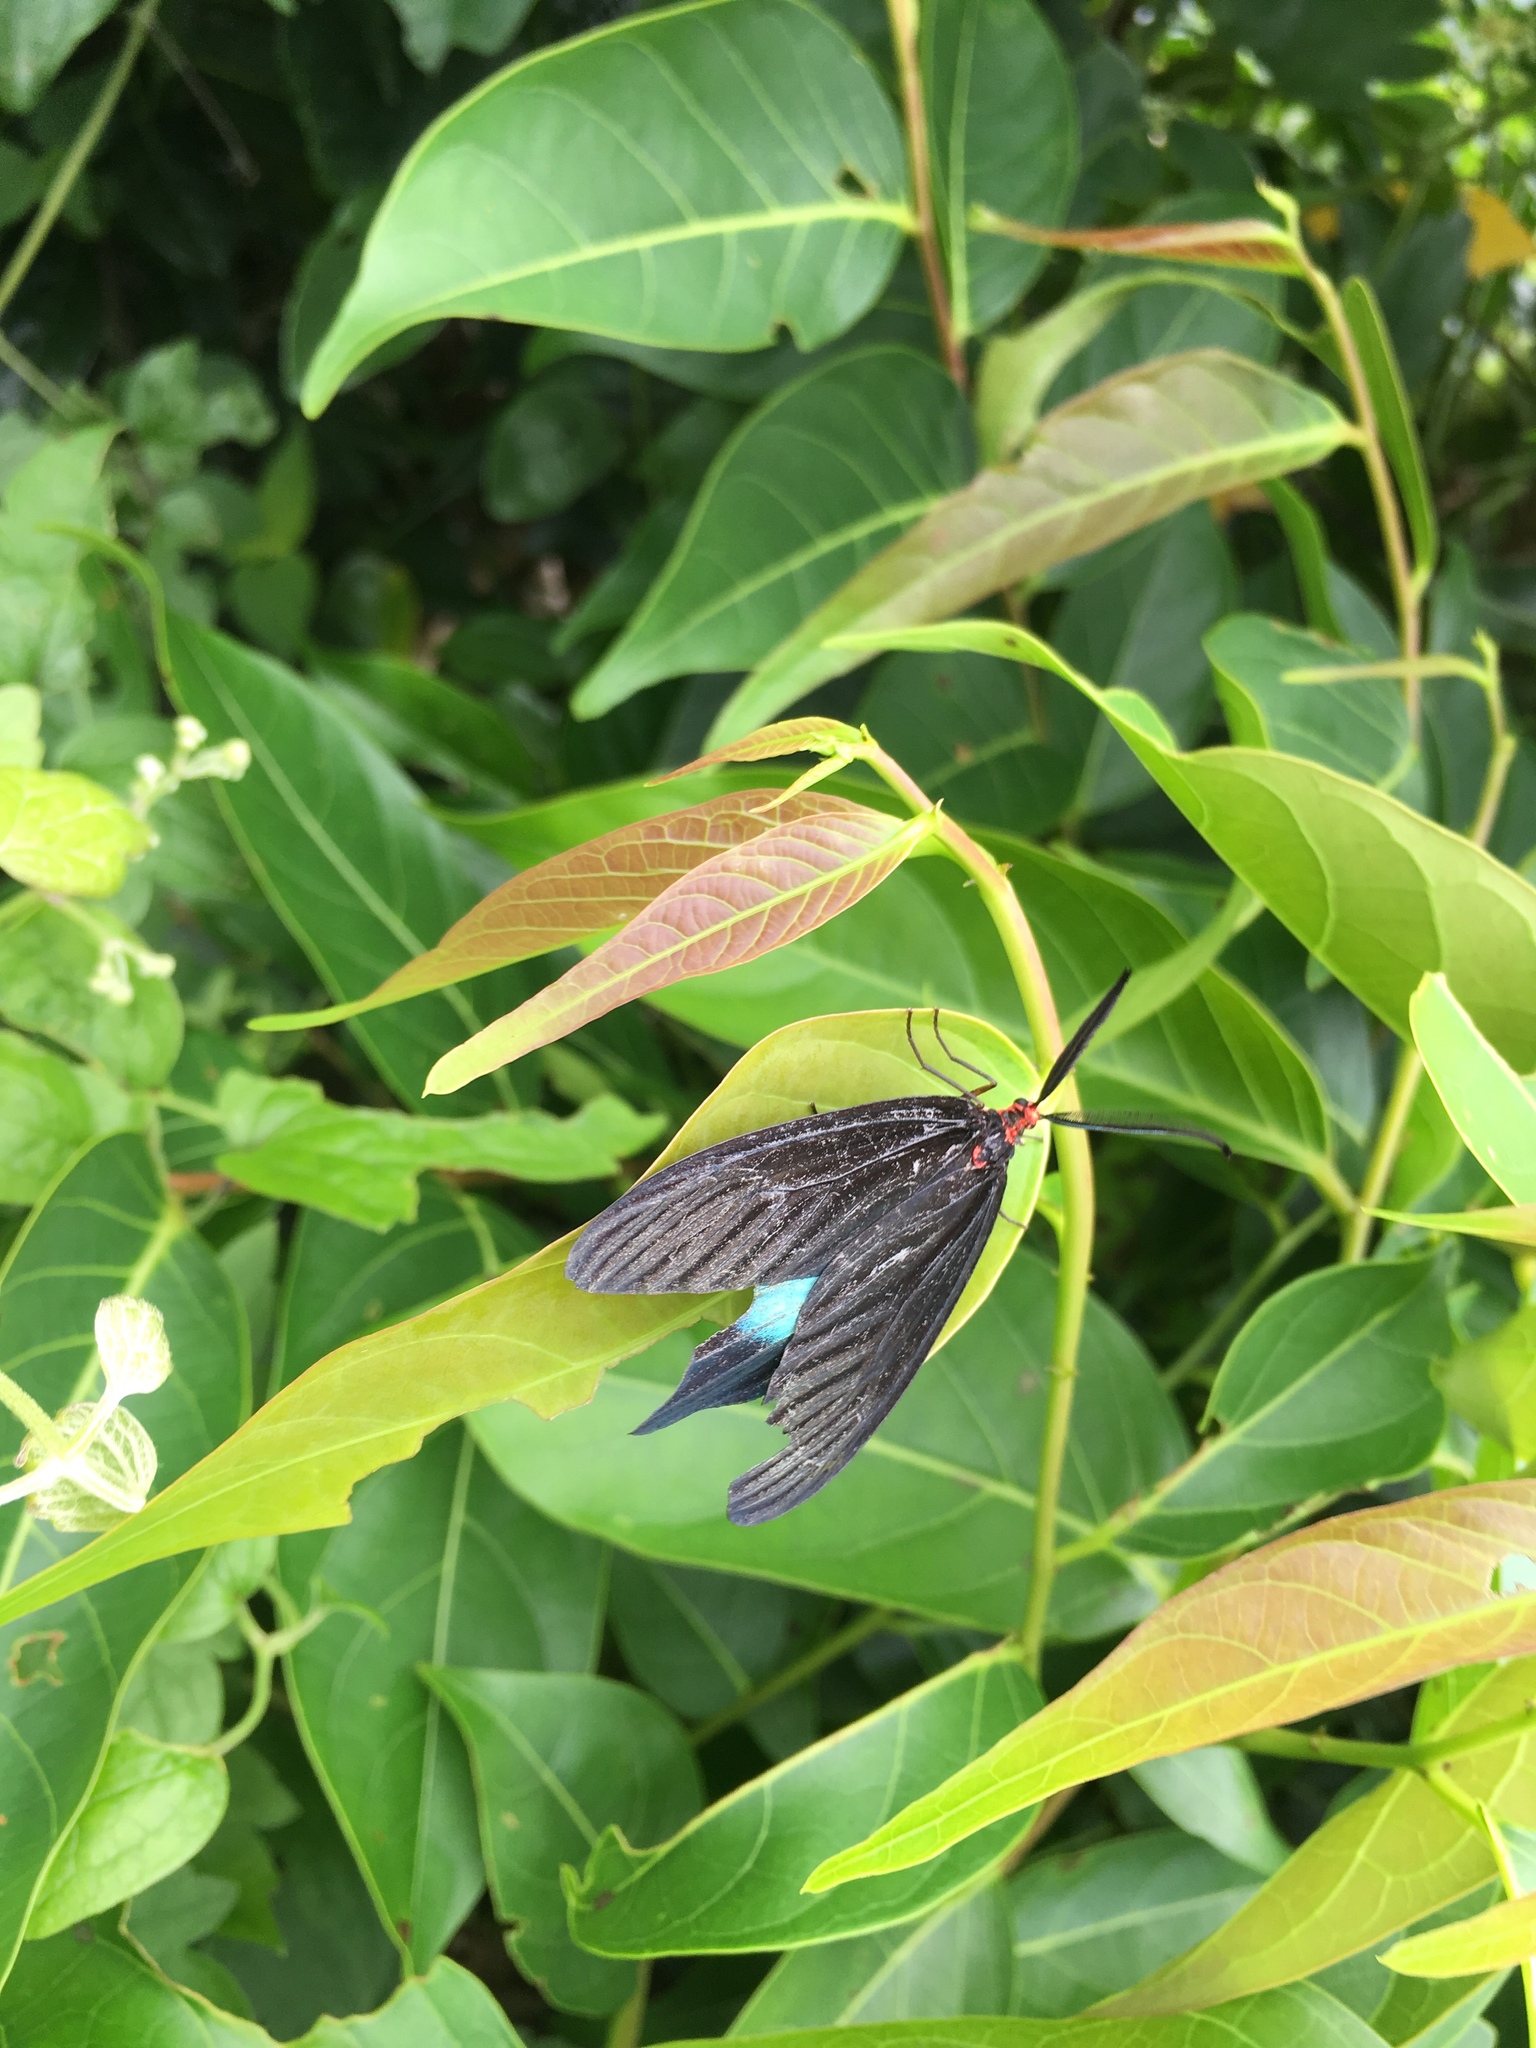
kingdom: Animalia
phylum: Arthropoda
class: Insecta
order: Lepidoptera
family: Zygaenidae
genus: Histia
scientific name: Histia flabellicornis
